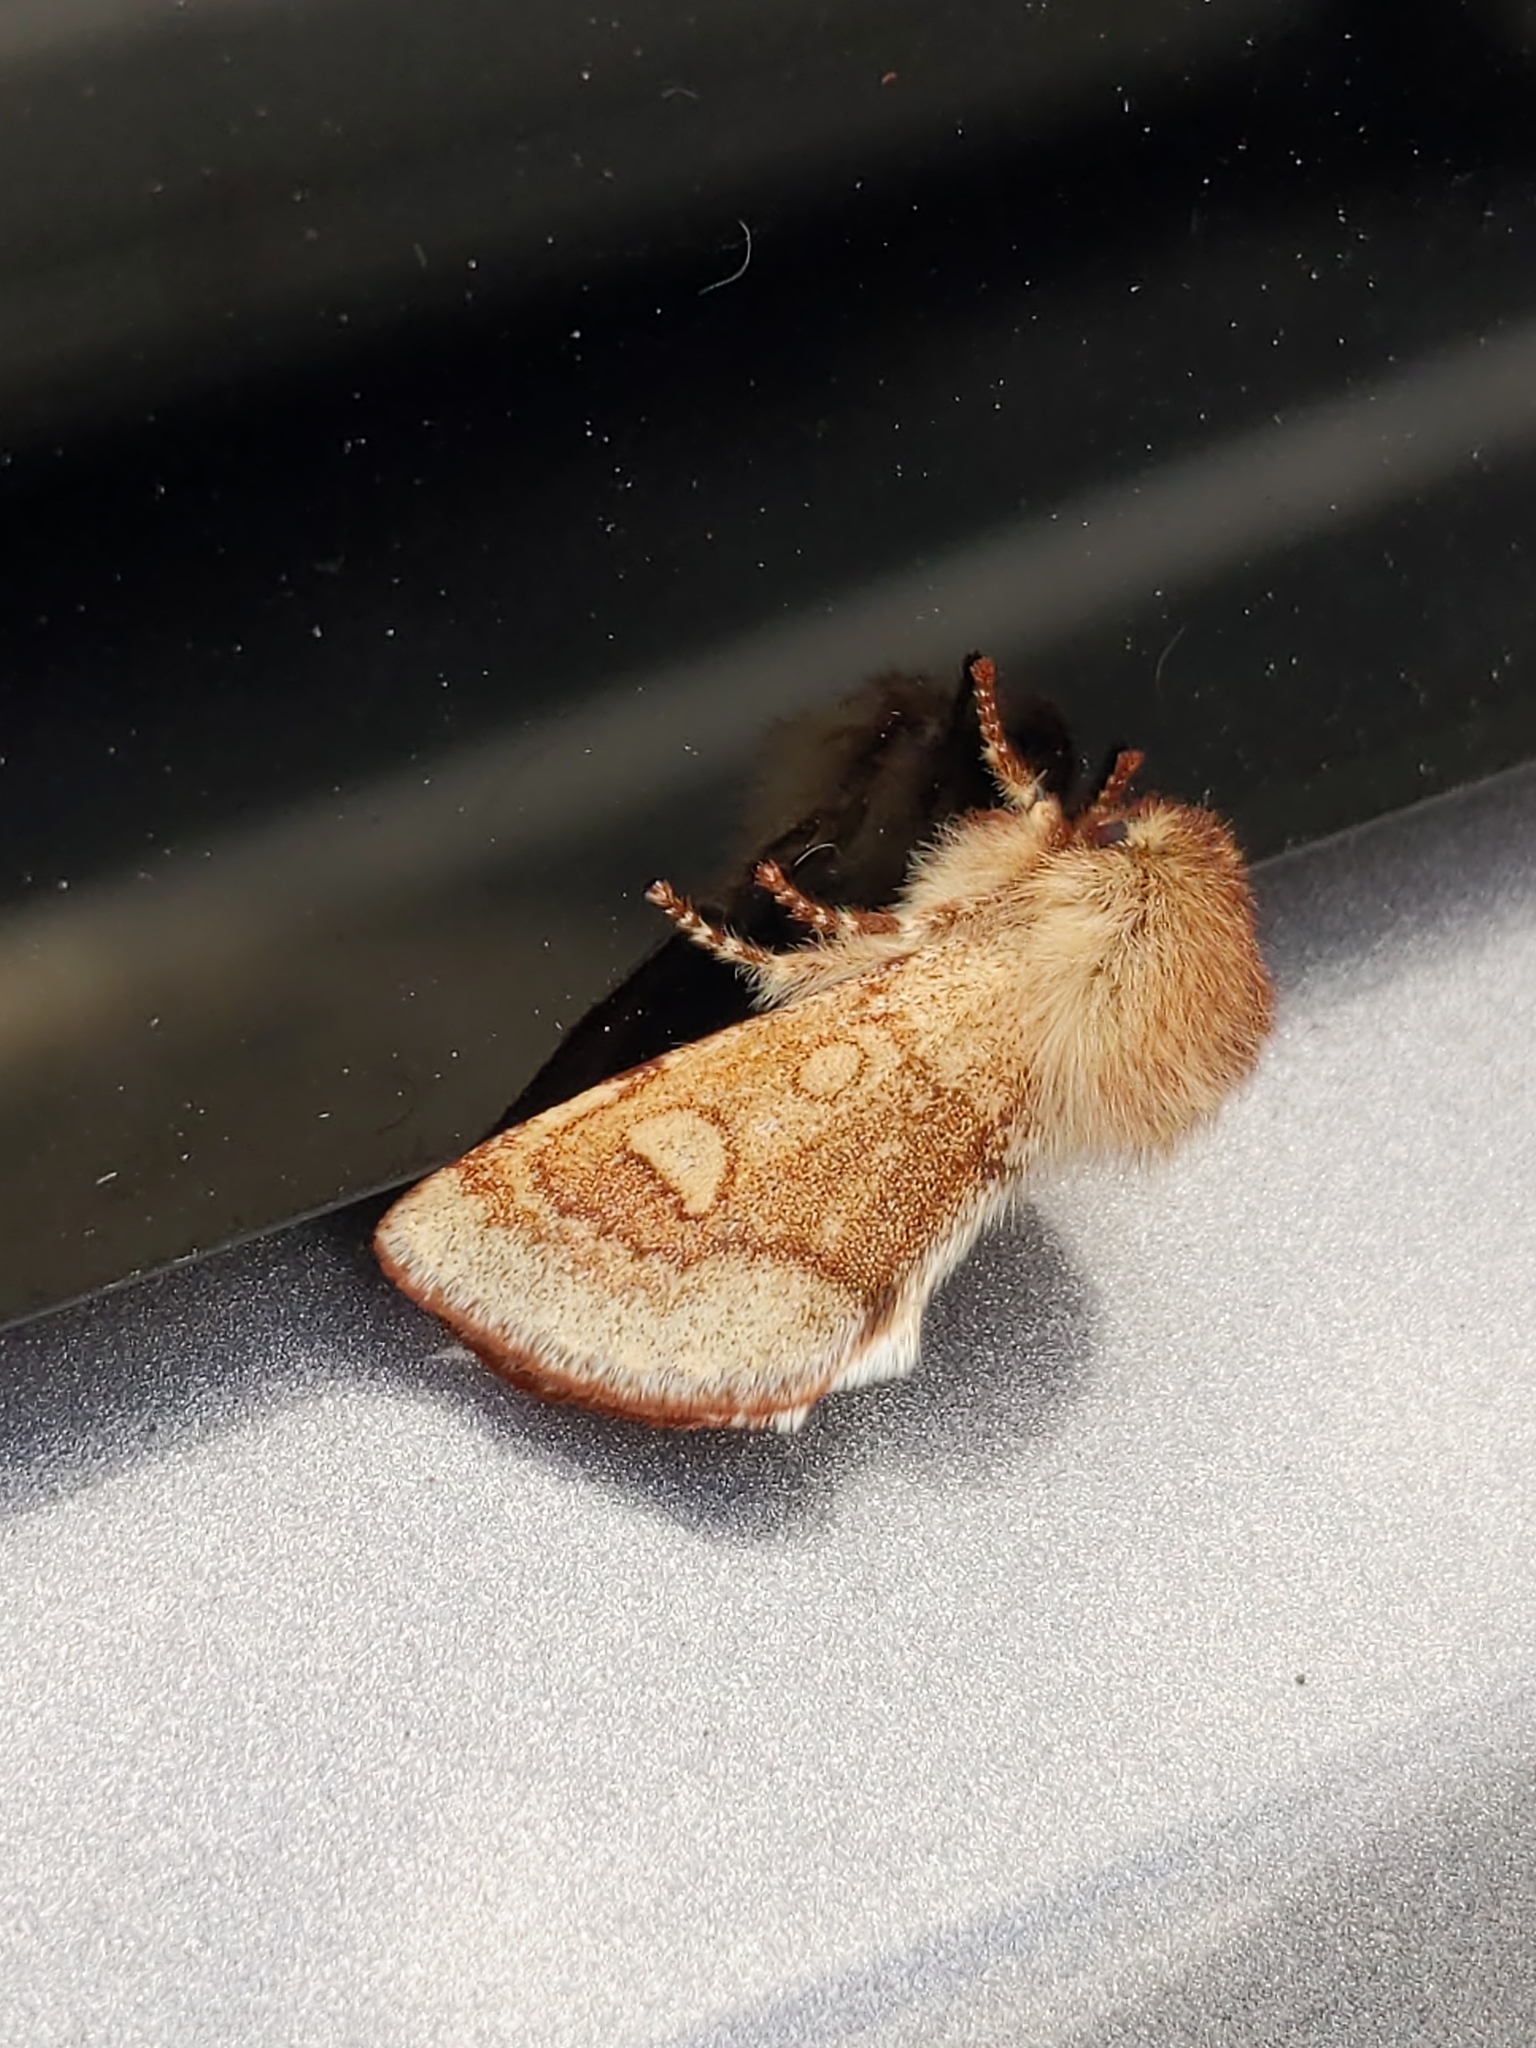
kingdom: Animalia
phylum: Arthropoda
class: Insecta
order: Lepidoptera
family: Noctuidae
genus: Psaphida
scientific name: Psaphida styracis
